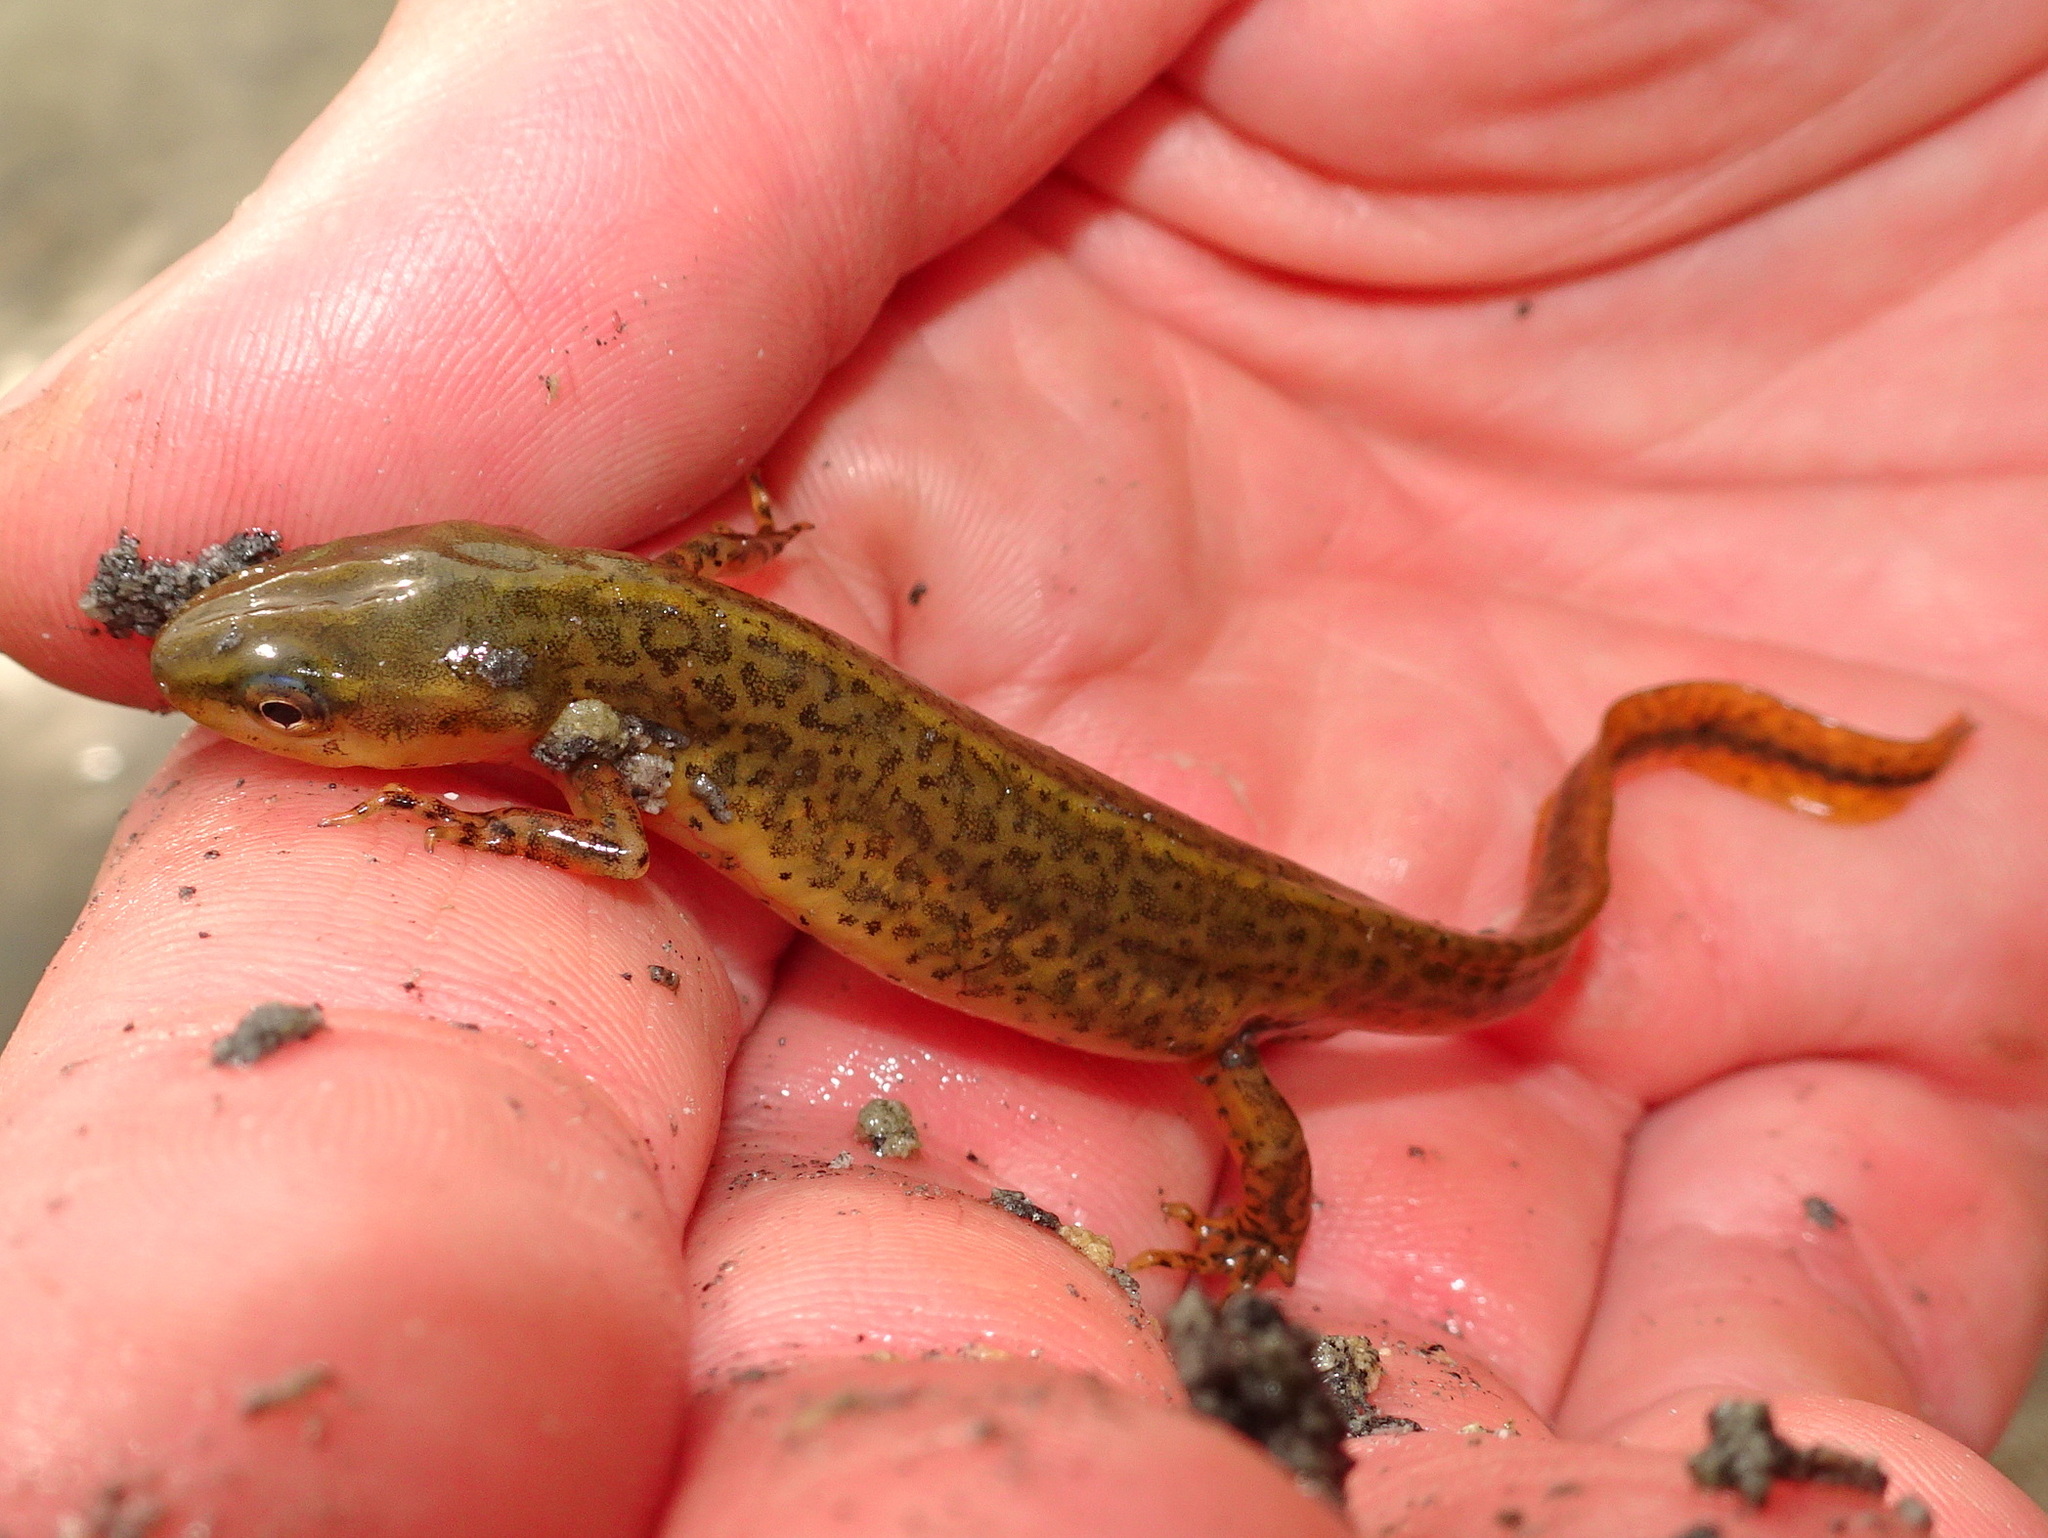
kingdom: Animalia
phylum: Chordata
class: Amphibia
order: Caudata
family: Salamandridae
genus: Notophthalmus
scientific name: Notophthalmus viridescens
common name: Eastern newt
